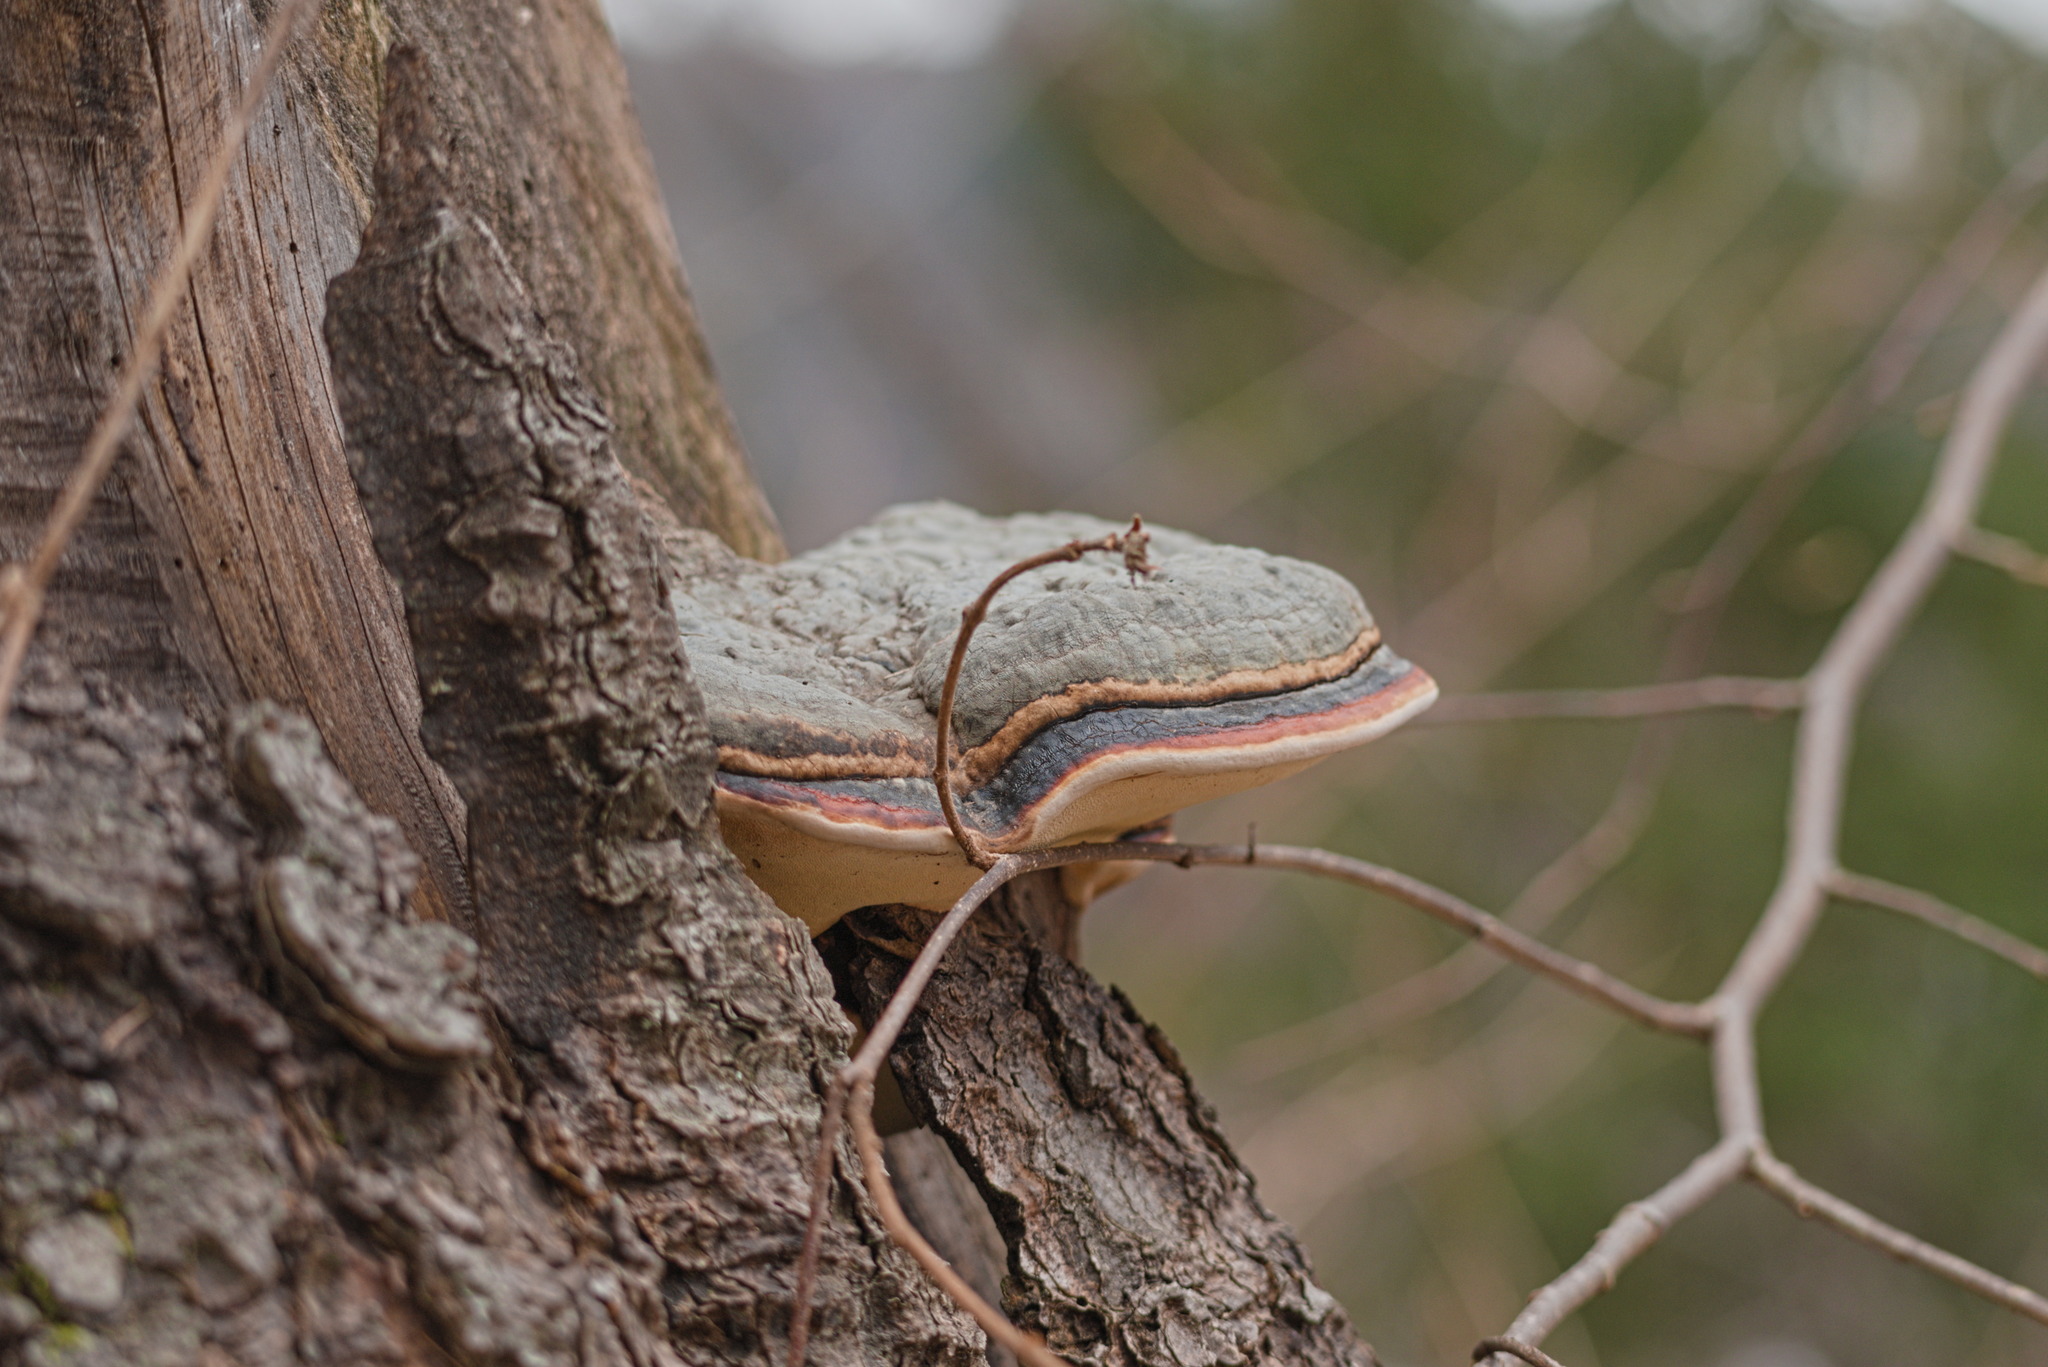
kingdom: Fungi
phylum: Basidiomycota
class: Agaricomycetes
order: Polyporales
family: Fomitopsidaceae
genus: Fomitopsis
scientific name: Fomitopsis pinicola
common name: Red-belted bracket
